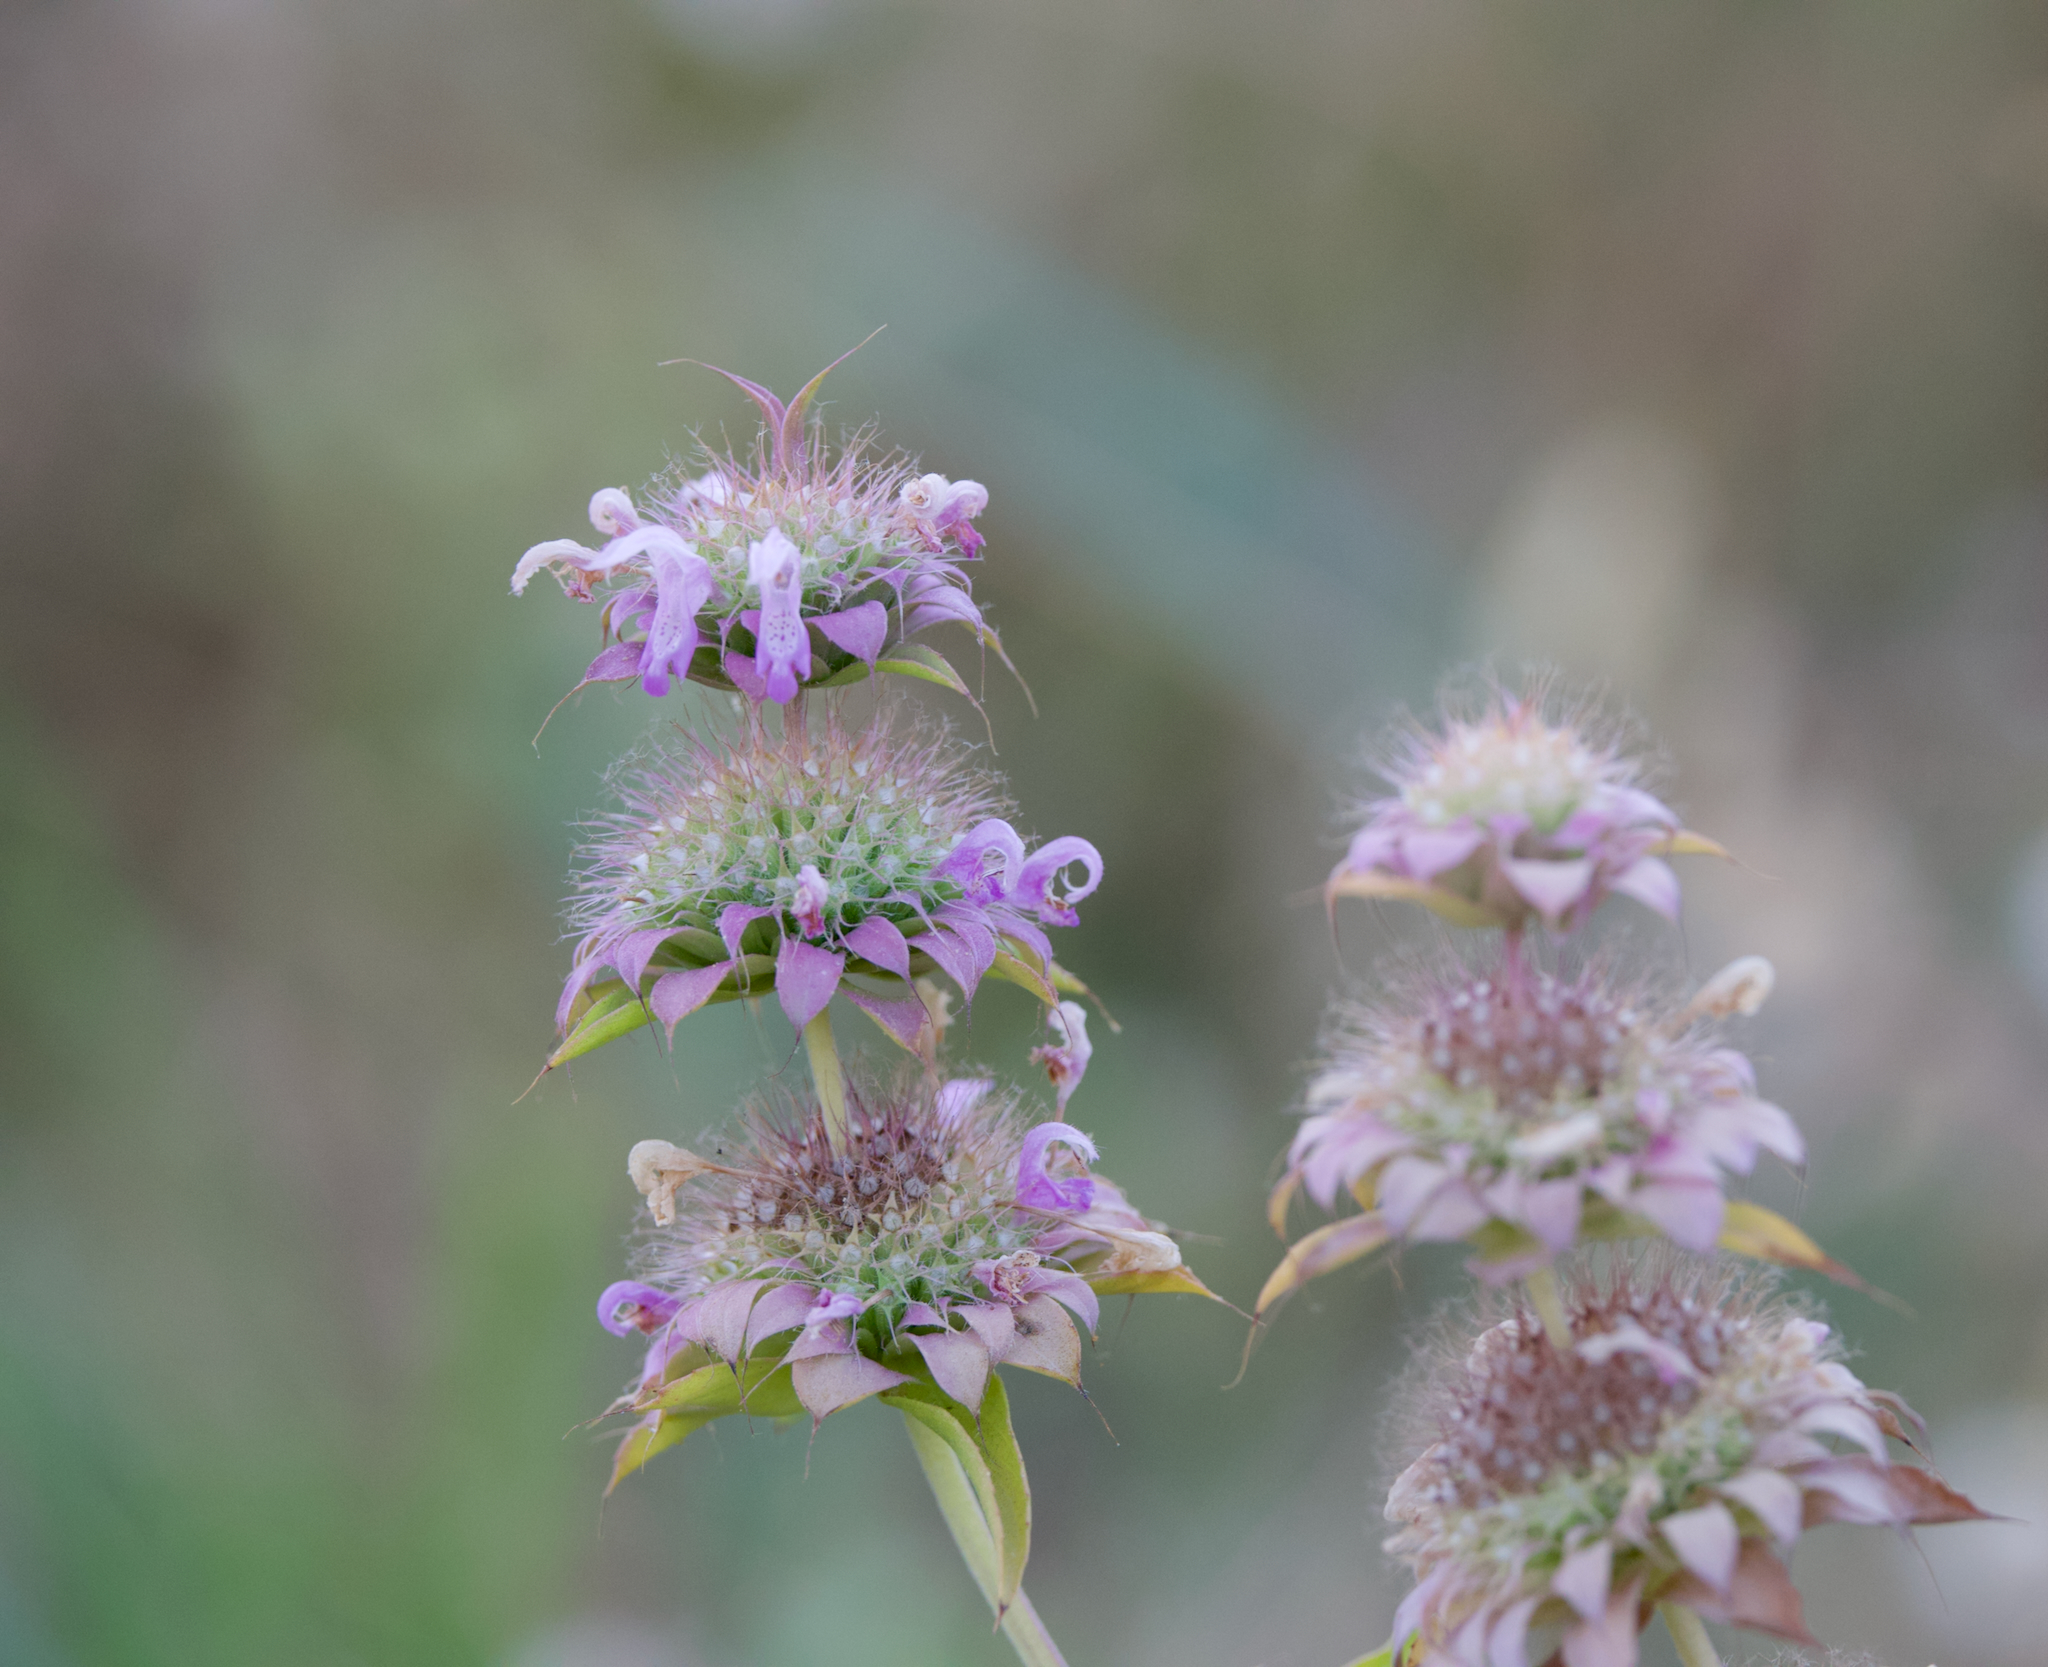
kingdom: Plantae
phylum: Tracheophyta
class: Magnoliopsida
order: Lamiales
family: Lamiaceae
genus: Monarda
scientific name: Monarda citriodora
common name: Lemon beebalm
